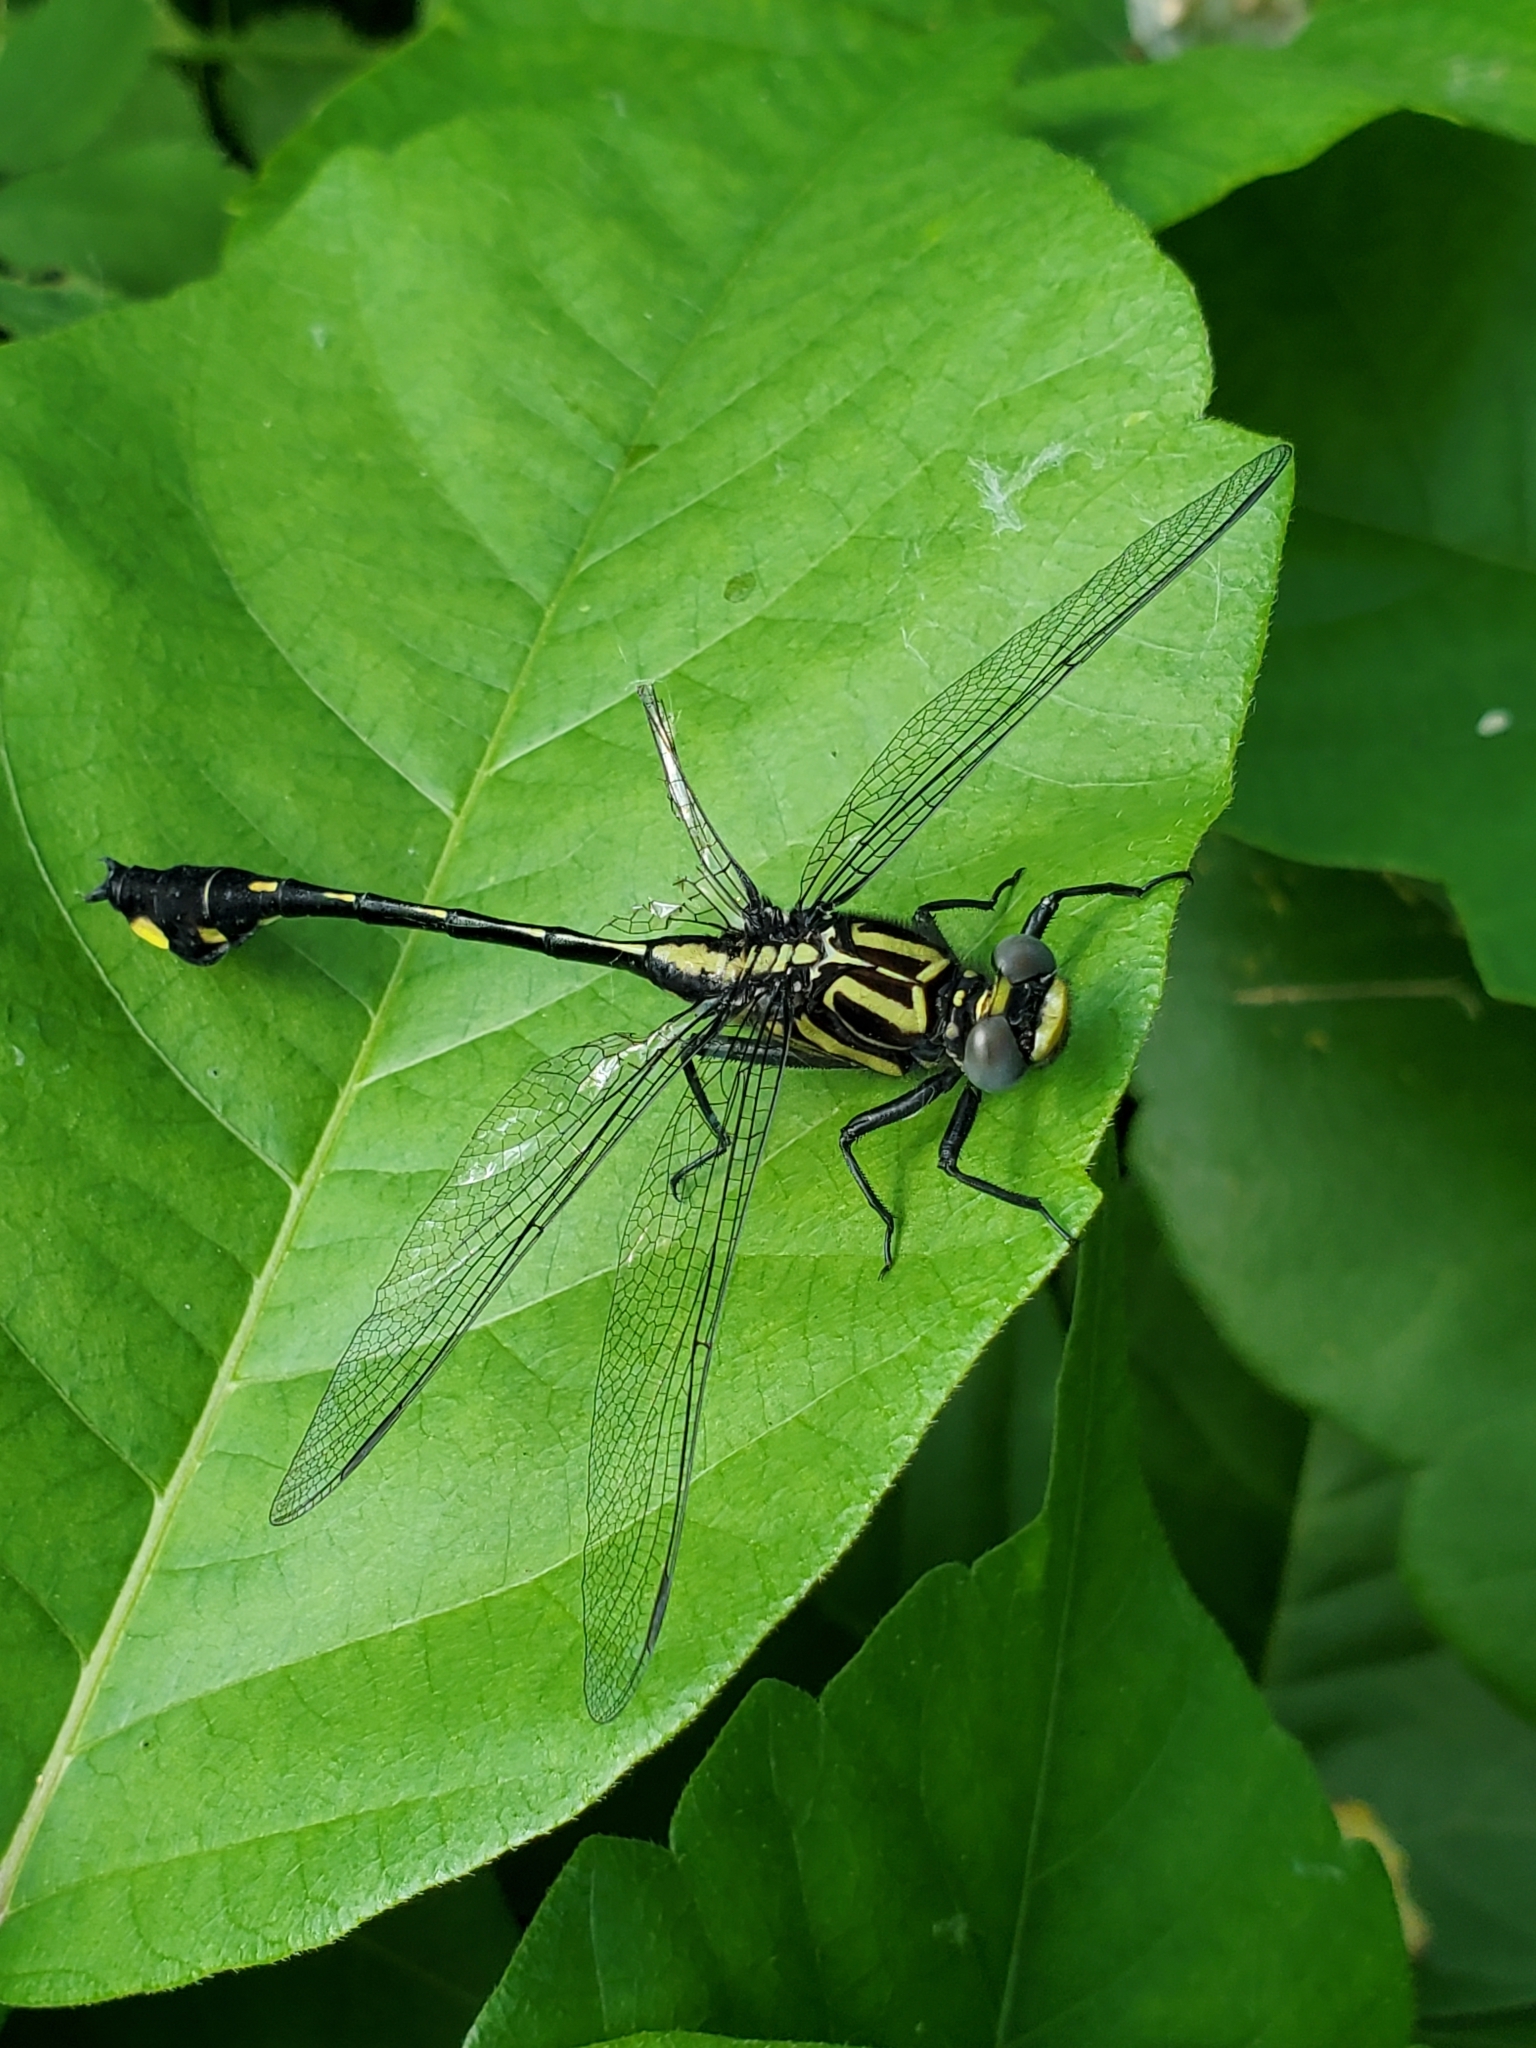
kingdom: Animalia
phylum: Arthropoda
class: Insecta
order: Odonata
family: Gomphidae
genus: Gomphurus
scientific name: Gomphurus vastus
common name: Cobra clubtail
